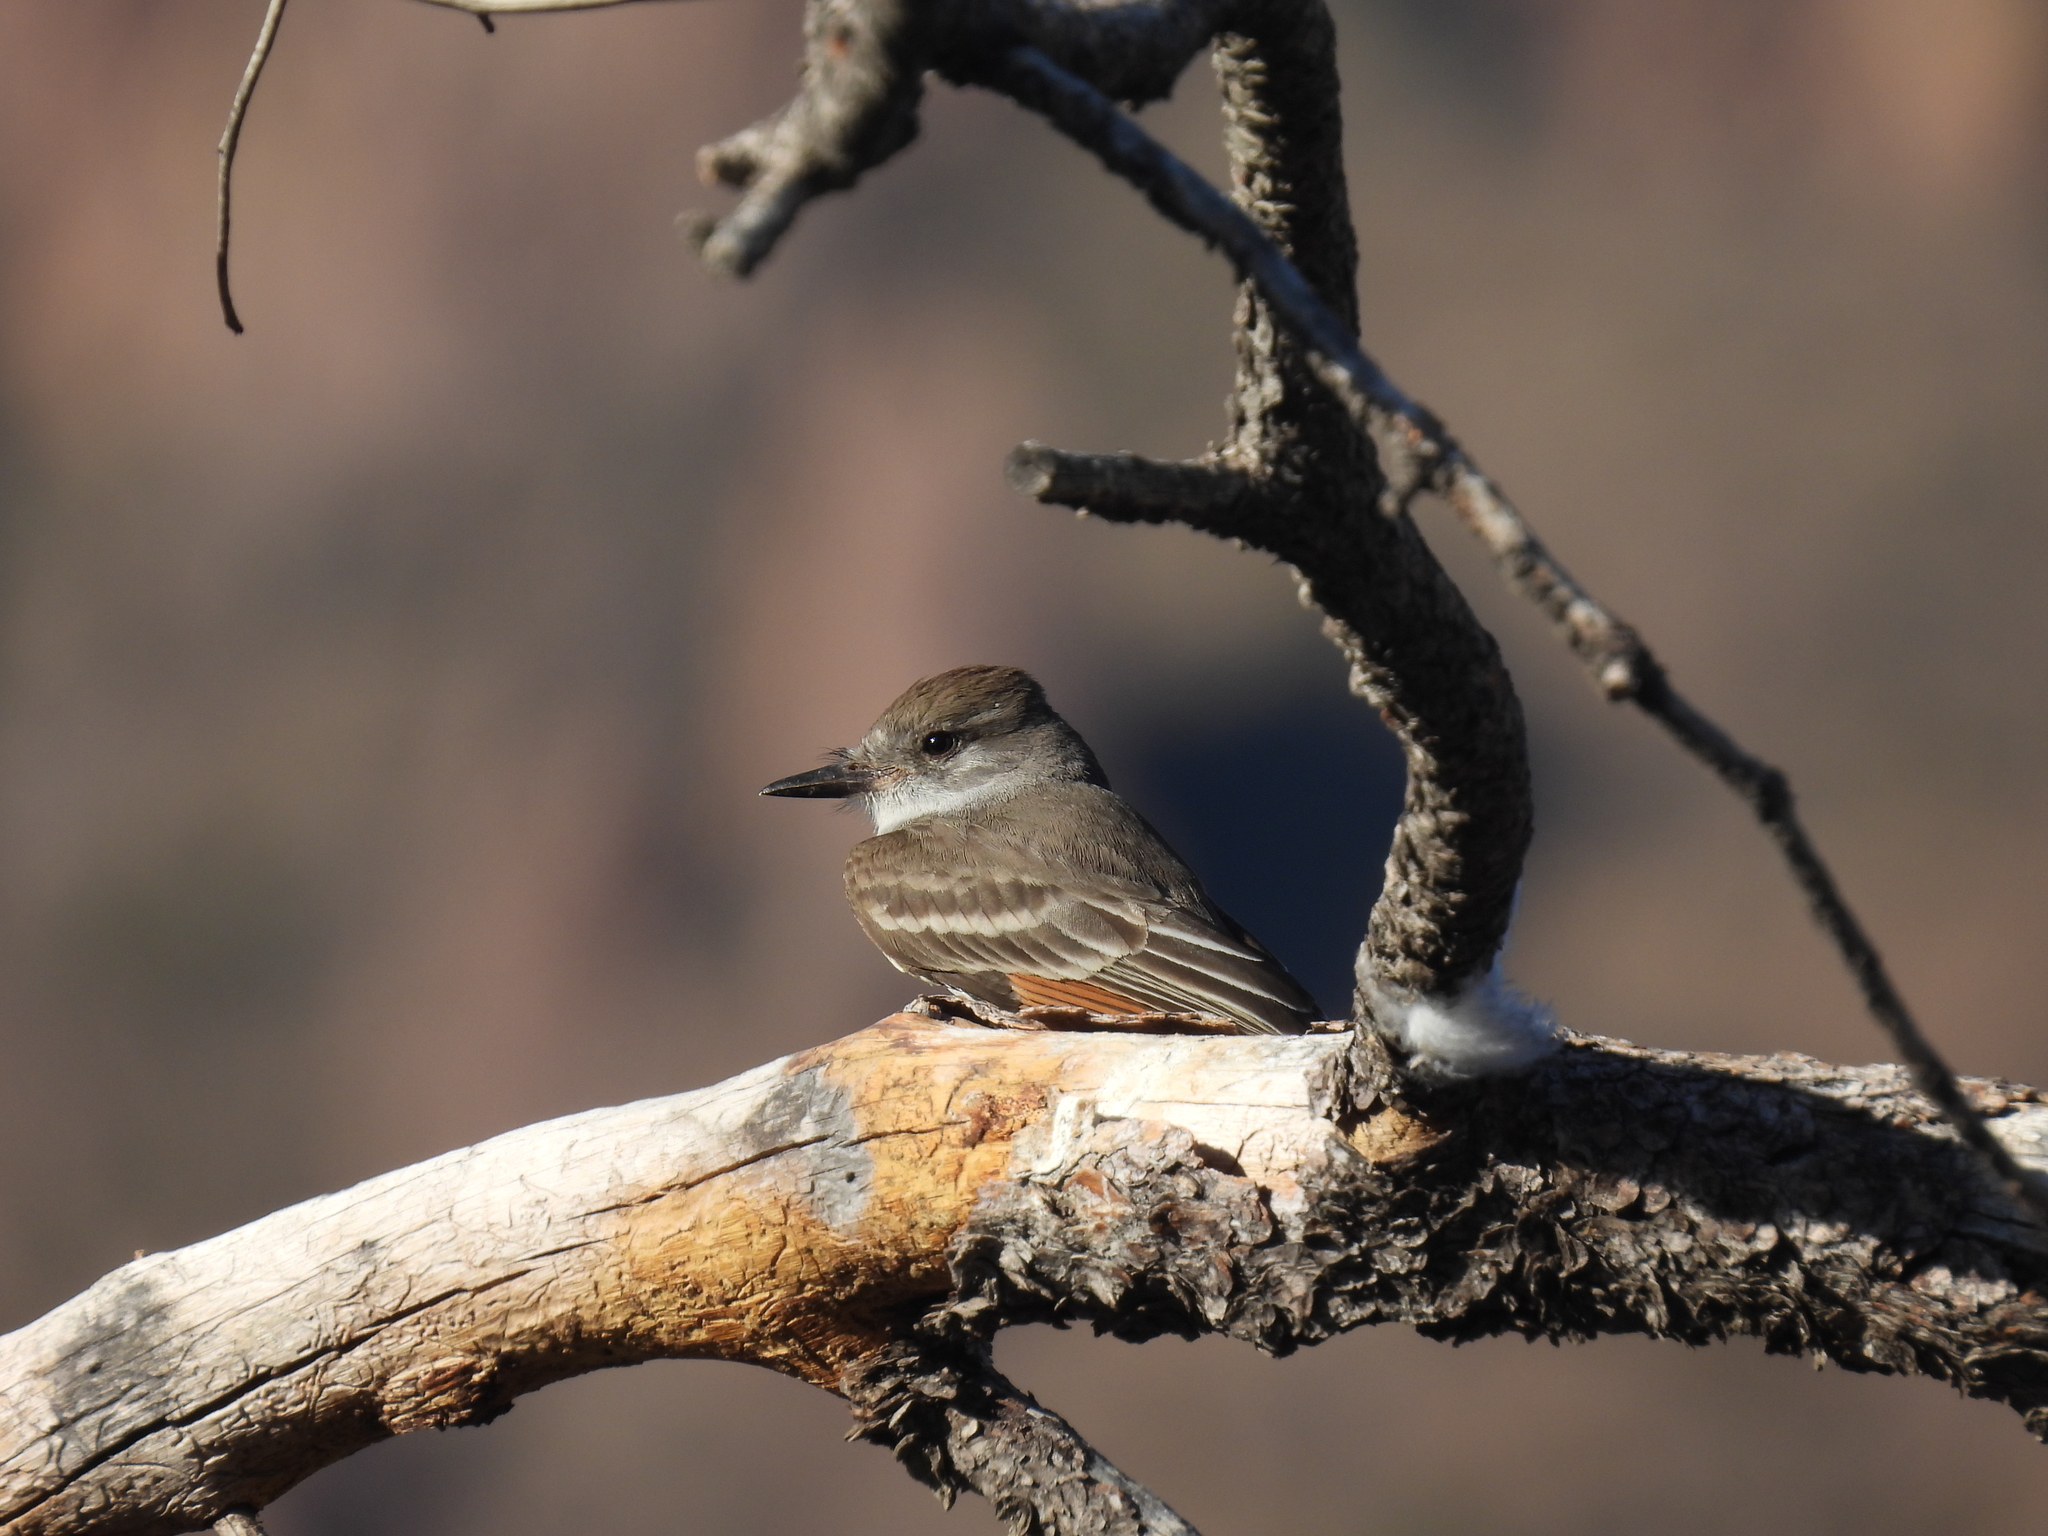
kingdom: Animalia
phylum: Chordata
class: Aves
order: Passeriformes
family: Tyrannidae
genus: Myiarchus
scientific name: Myiarchus cinerascens
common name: Ash-throated flycatcher
